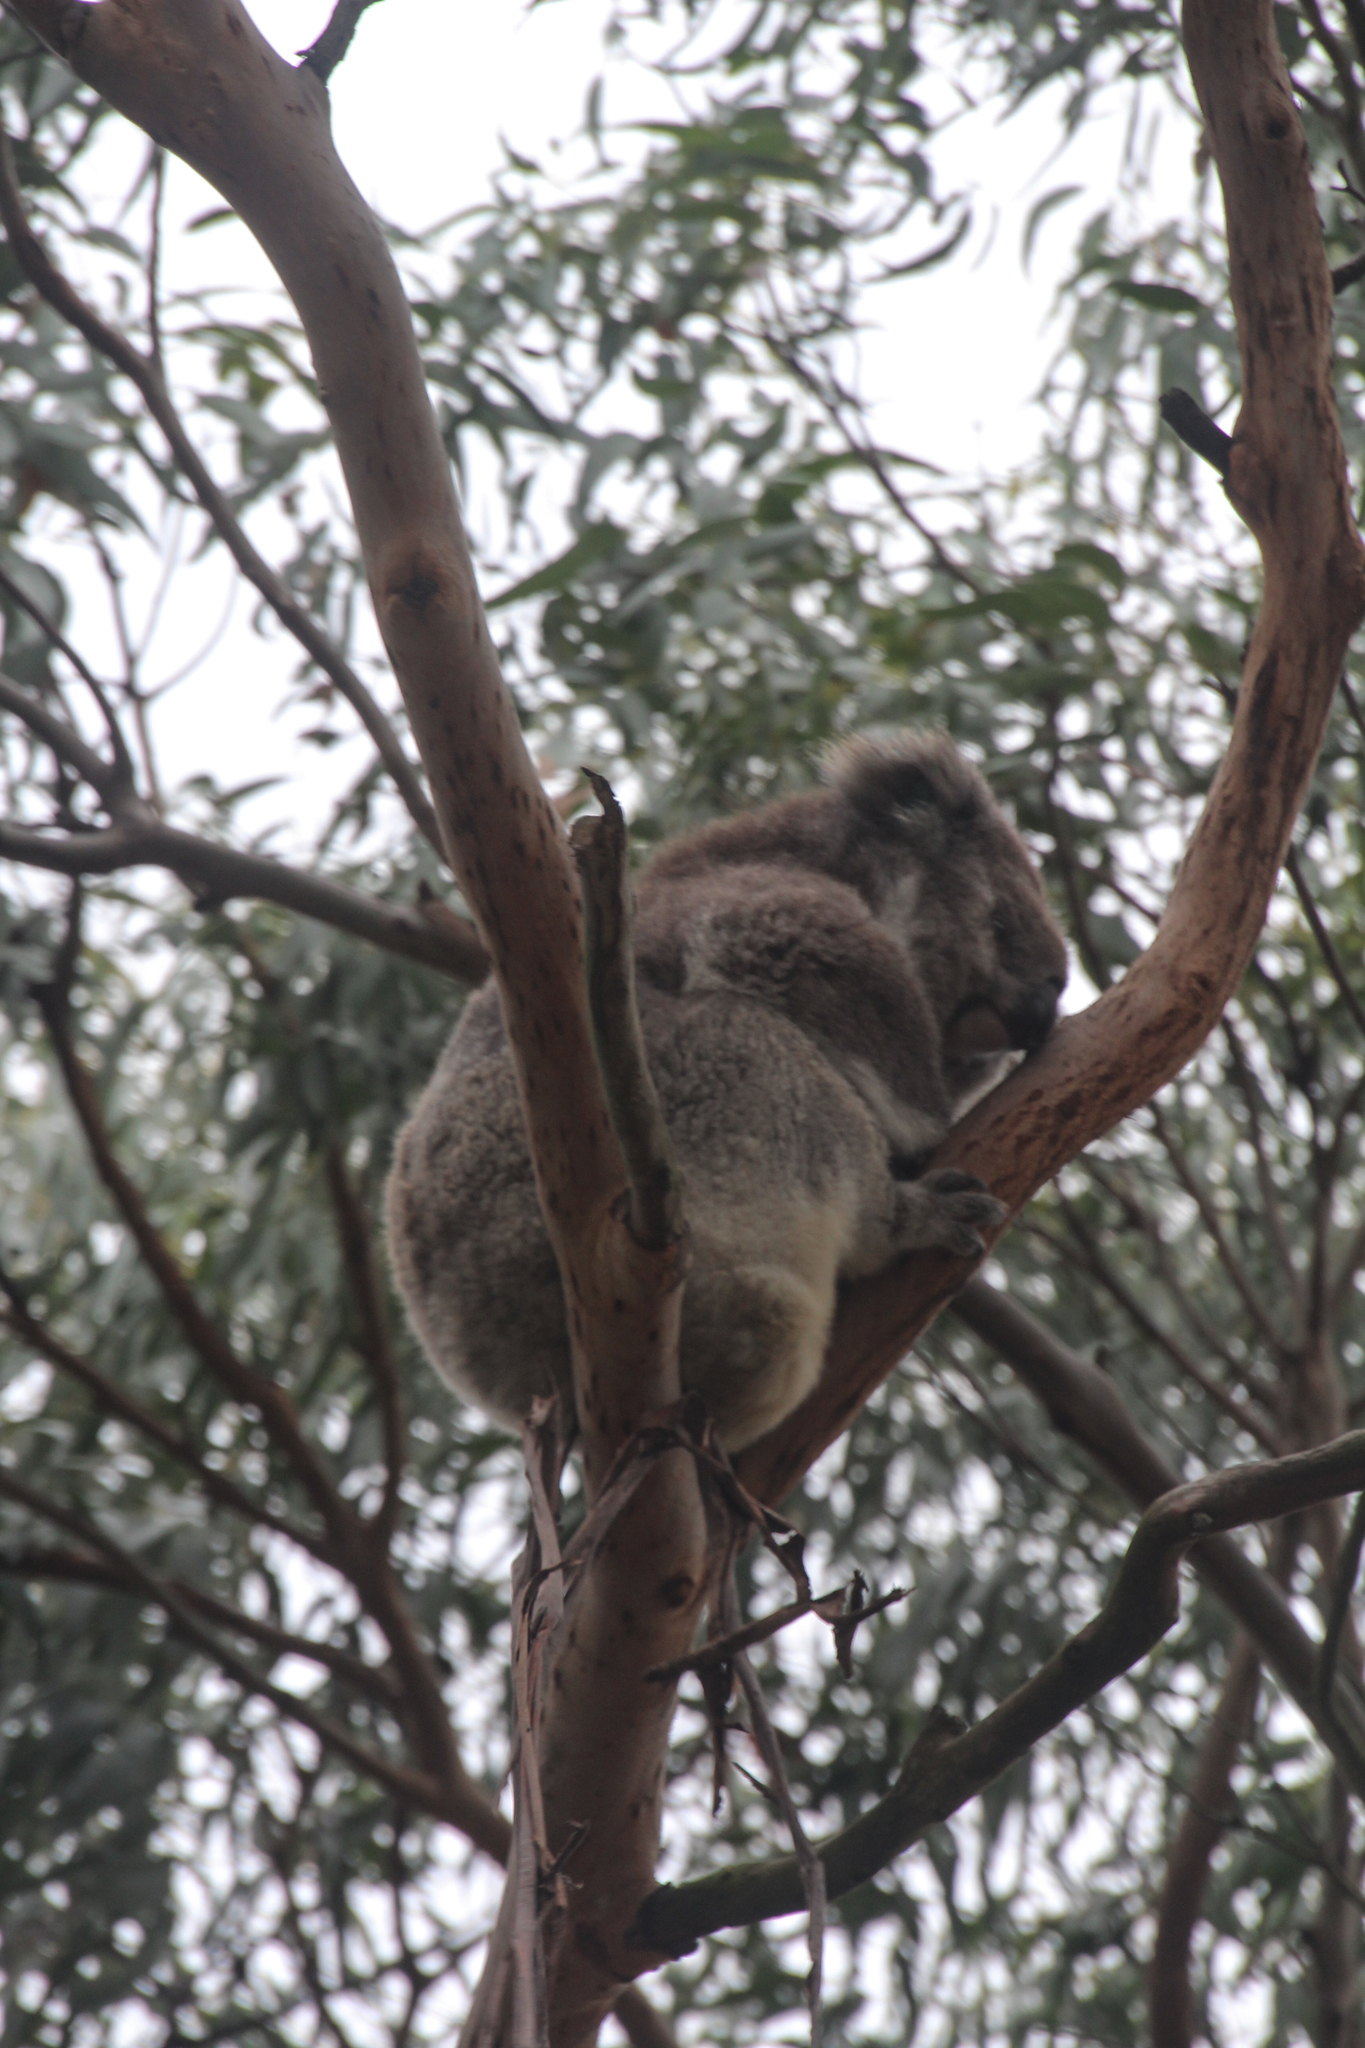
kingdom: Animalia
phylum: Chordata
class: Mammalia
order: Diprotodontia
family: Phascolarctidae
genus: Phascolarctos
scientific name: Phascolarctos cinereus
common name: Koala
